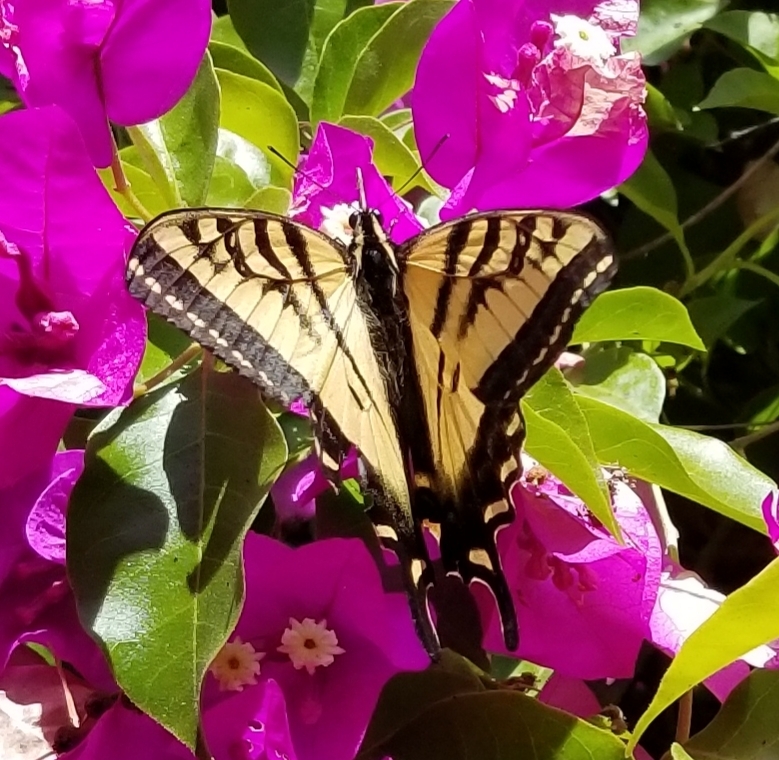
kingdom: Animalia
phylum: Arthropoda
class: Insecta
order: Lepidoptera
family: Papilionidae
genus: Papilio
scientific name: Papilio rutulus
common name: Western tiger swallowtail
